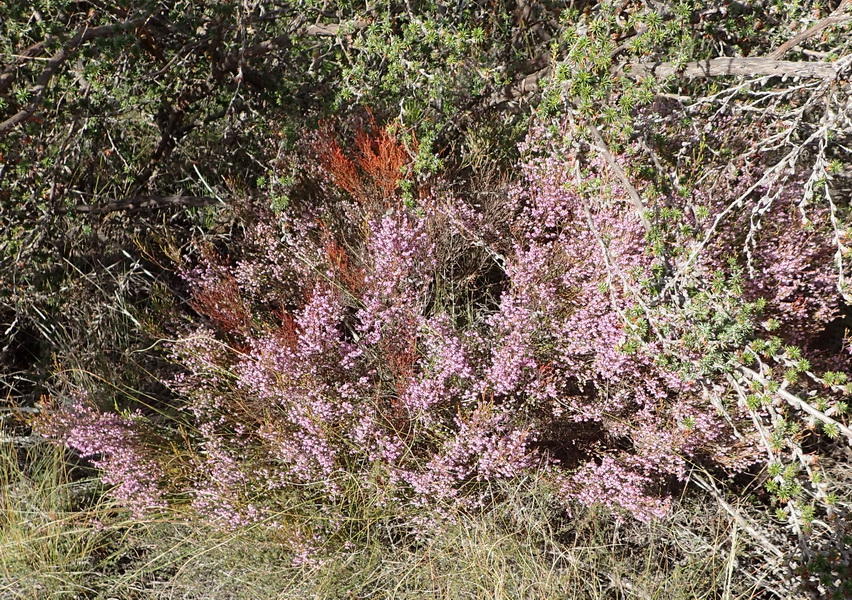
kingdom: Plantae
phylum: Tracheophyta
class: Magnoliopsida
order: Ericales
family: Ericaceae
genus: Erica
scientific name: Erica rosacea
